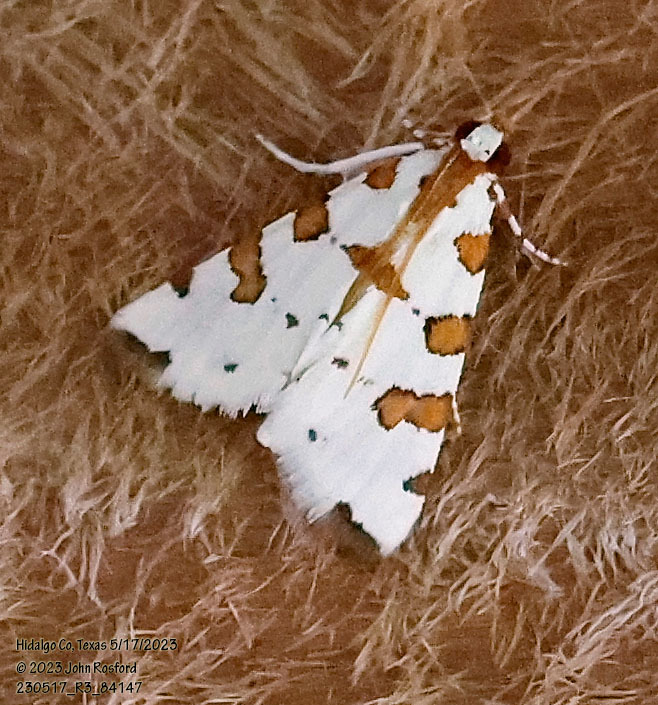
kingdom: Animalia
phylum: Arthropoda
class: Insecta
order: Lepidoptera
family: Crambidae
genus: Conchylodes
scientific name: Conchylodes
